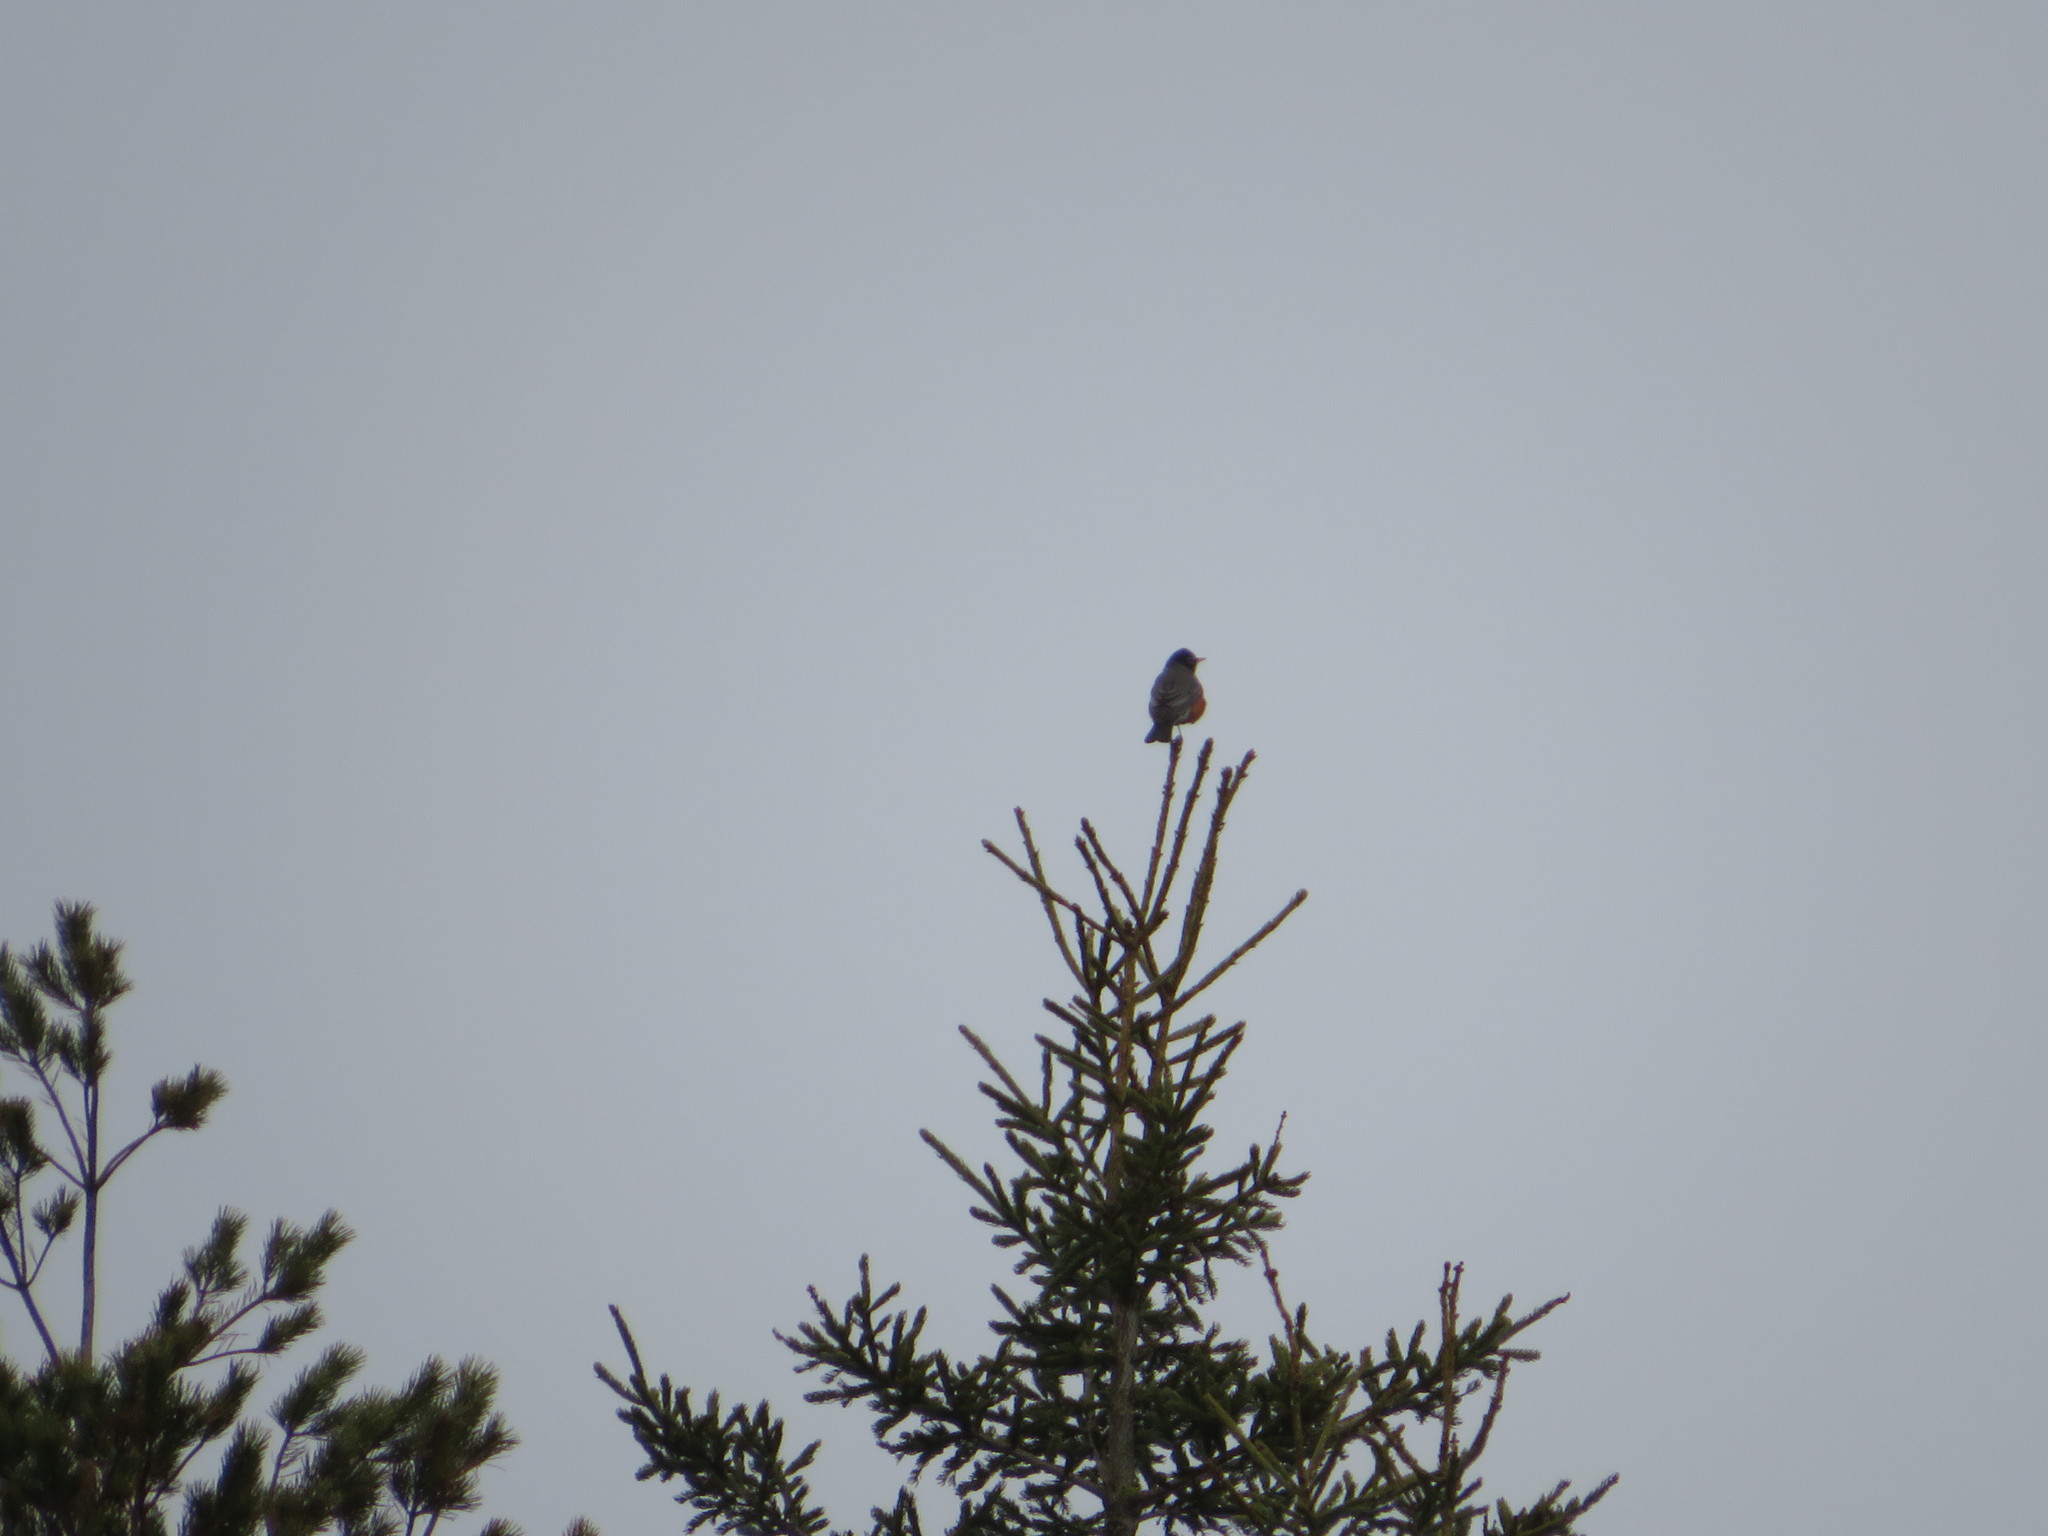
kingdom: Animalia
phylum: Chordata
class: Aves
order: Passeriformes
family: Turdidae
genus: Turdus
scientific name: Turdus migratorius
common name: American robin
